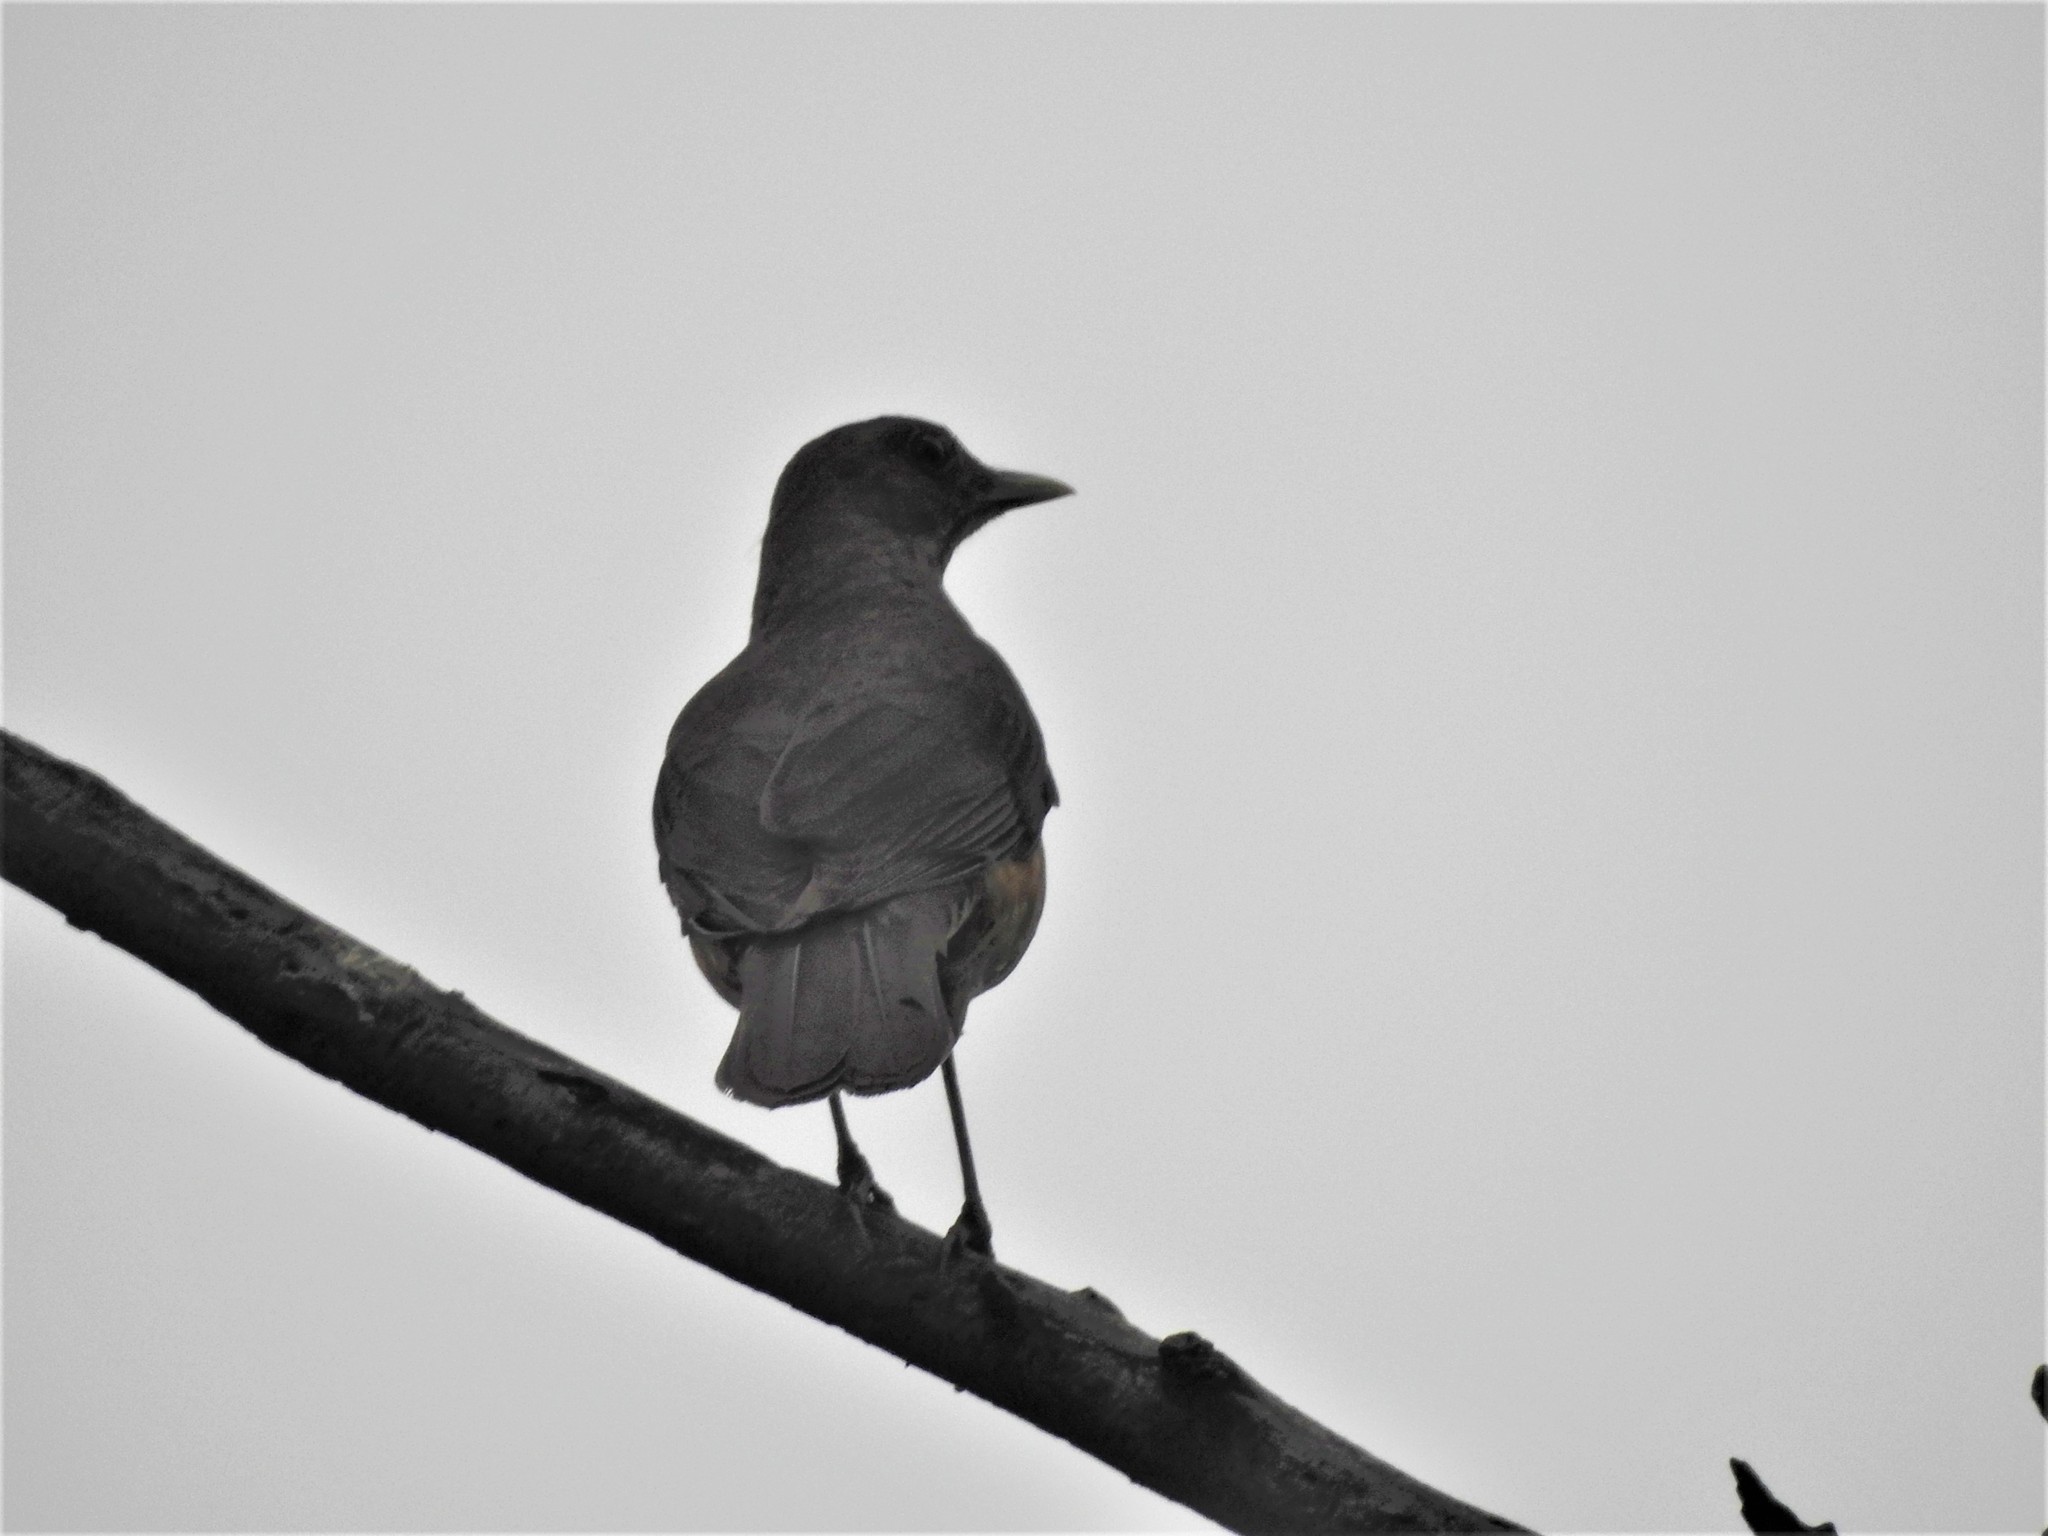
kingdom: Animalia
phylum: Chordata
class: Aves
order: Passeriformes
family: Turdidae
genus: Turdus
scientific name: Turdus grayi
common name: Clay-colored thrush
